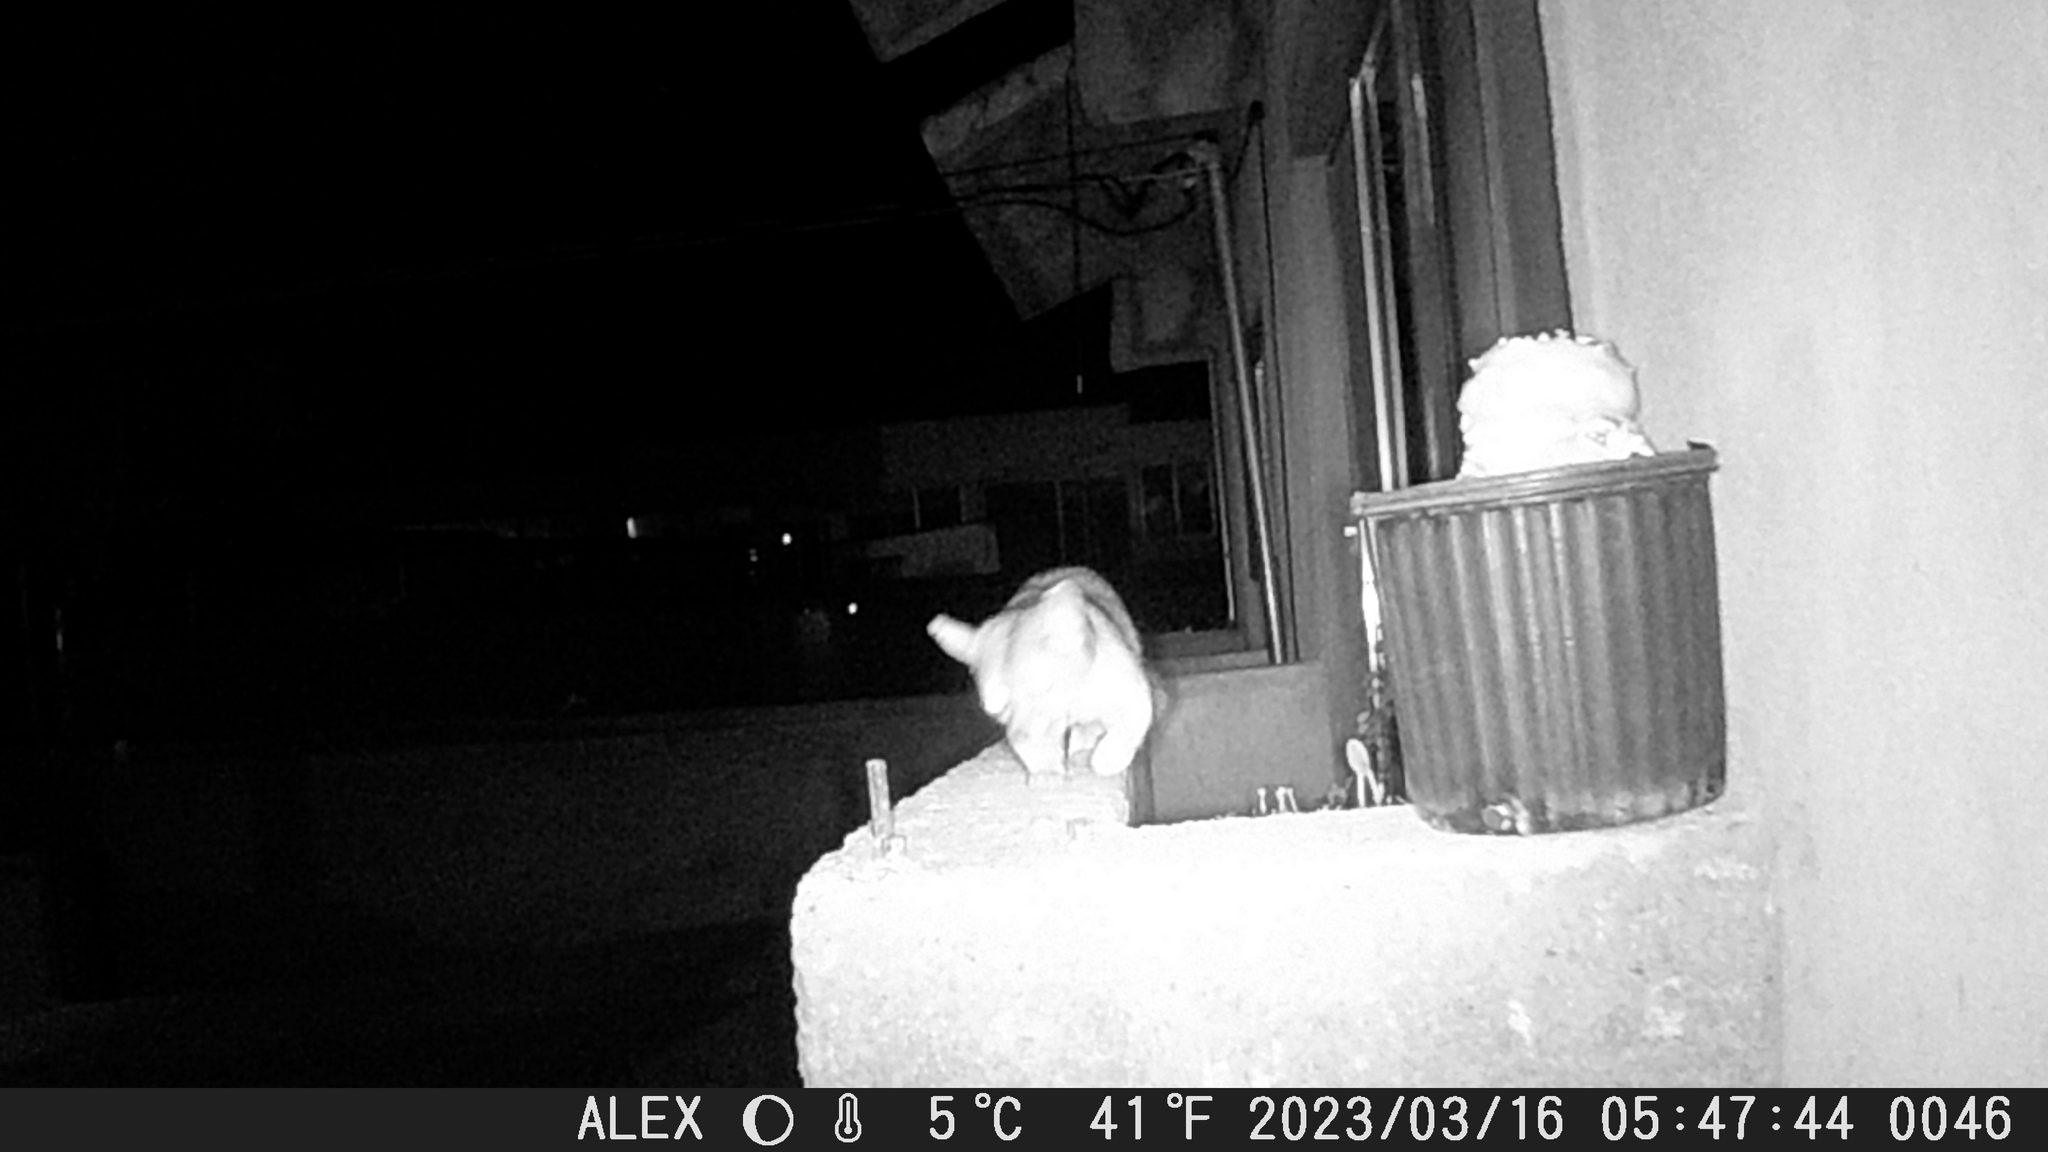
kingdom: Animalia
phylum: Chordata
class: Mammalia
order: Carnivora
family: Procyonidae
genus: Bassariscus
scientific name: Bassariscus astutus
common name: Ringtail
